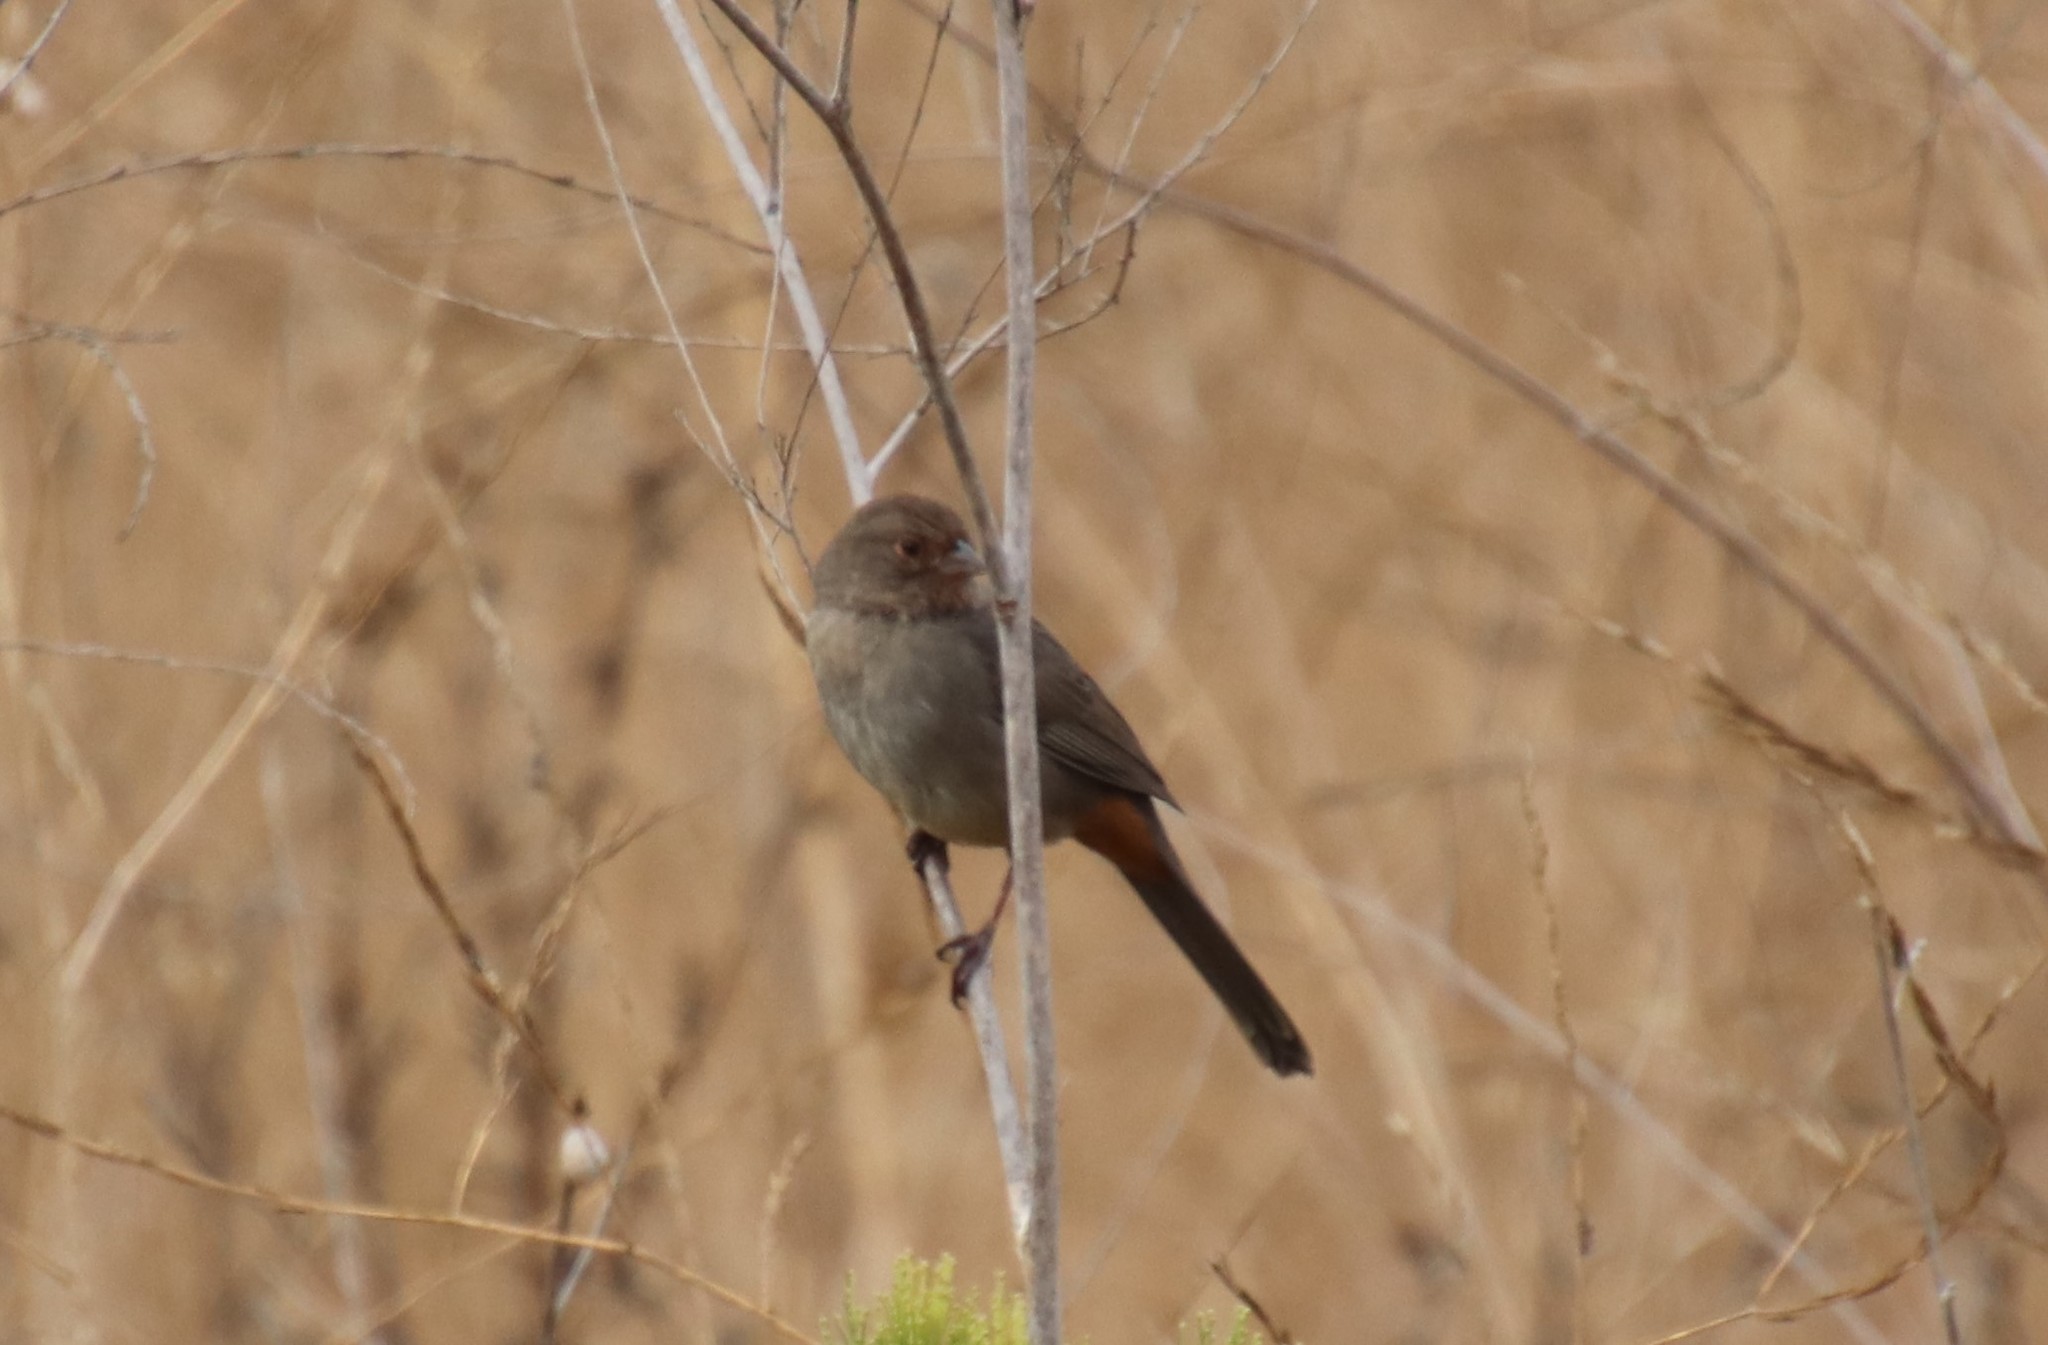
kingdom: Animalia
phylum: Chordata
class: Aves
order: Passeriformes
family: Passerellidae
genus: Melozone
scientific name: Melozone crissalis
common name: California towhee
